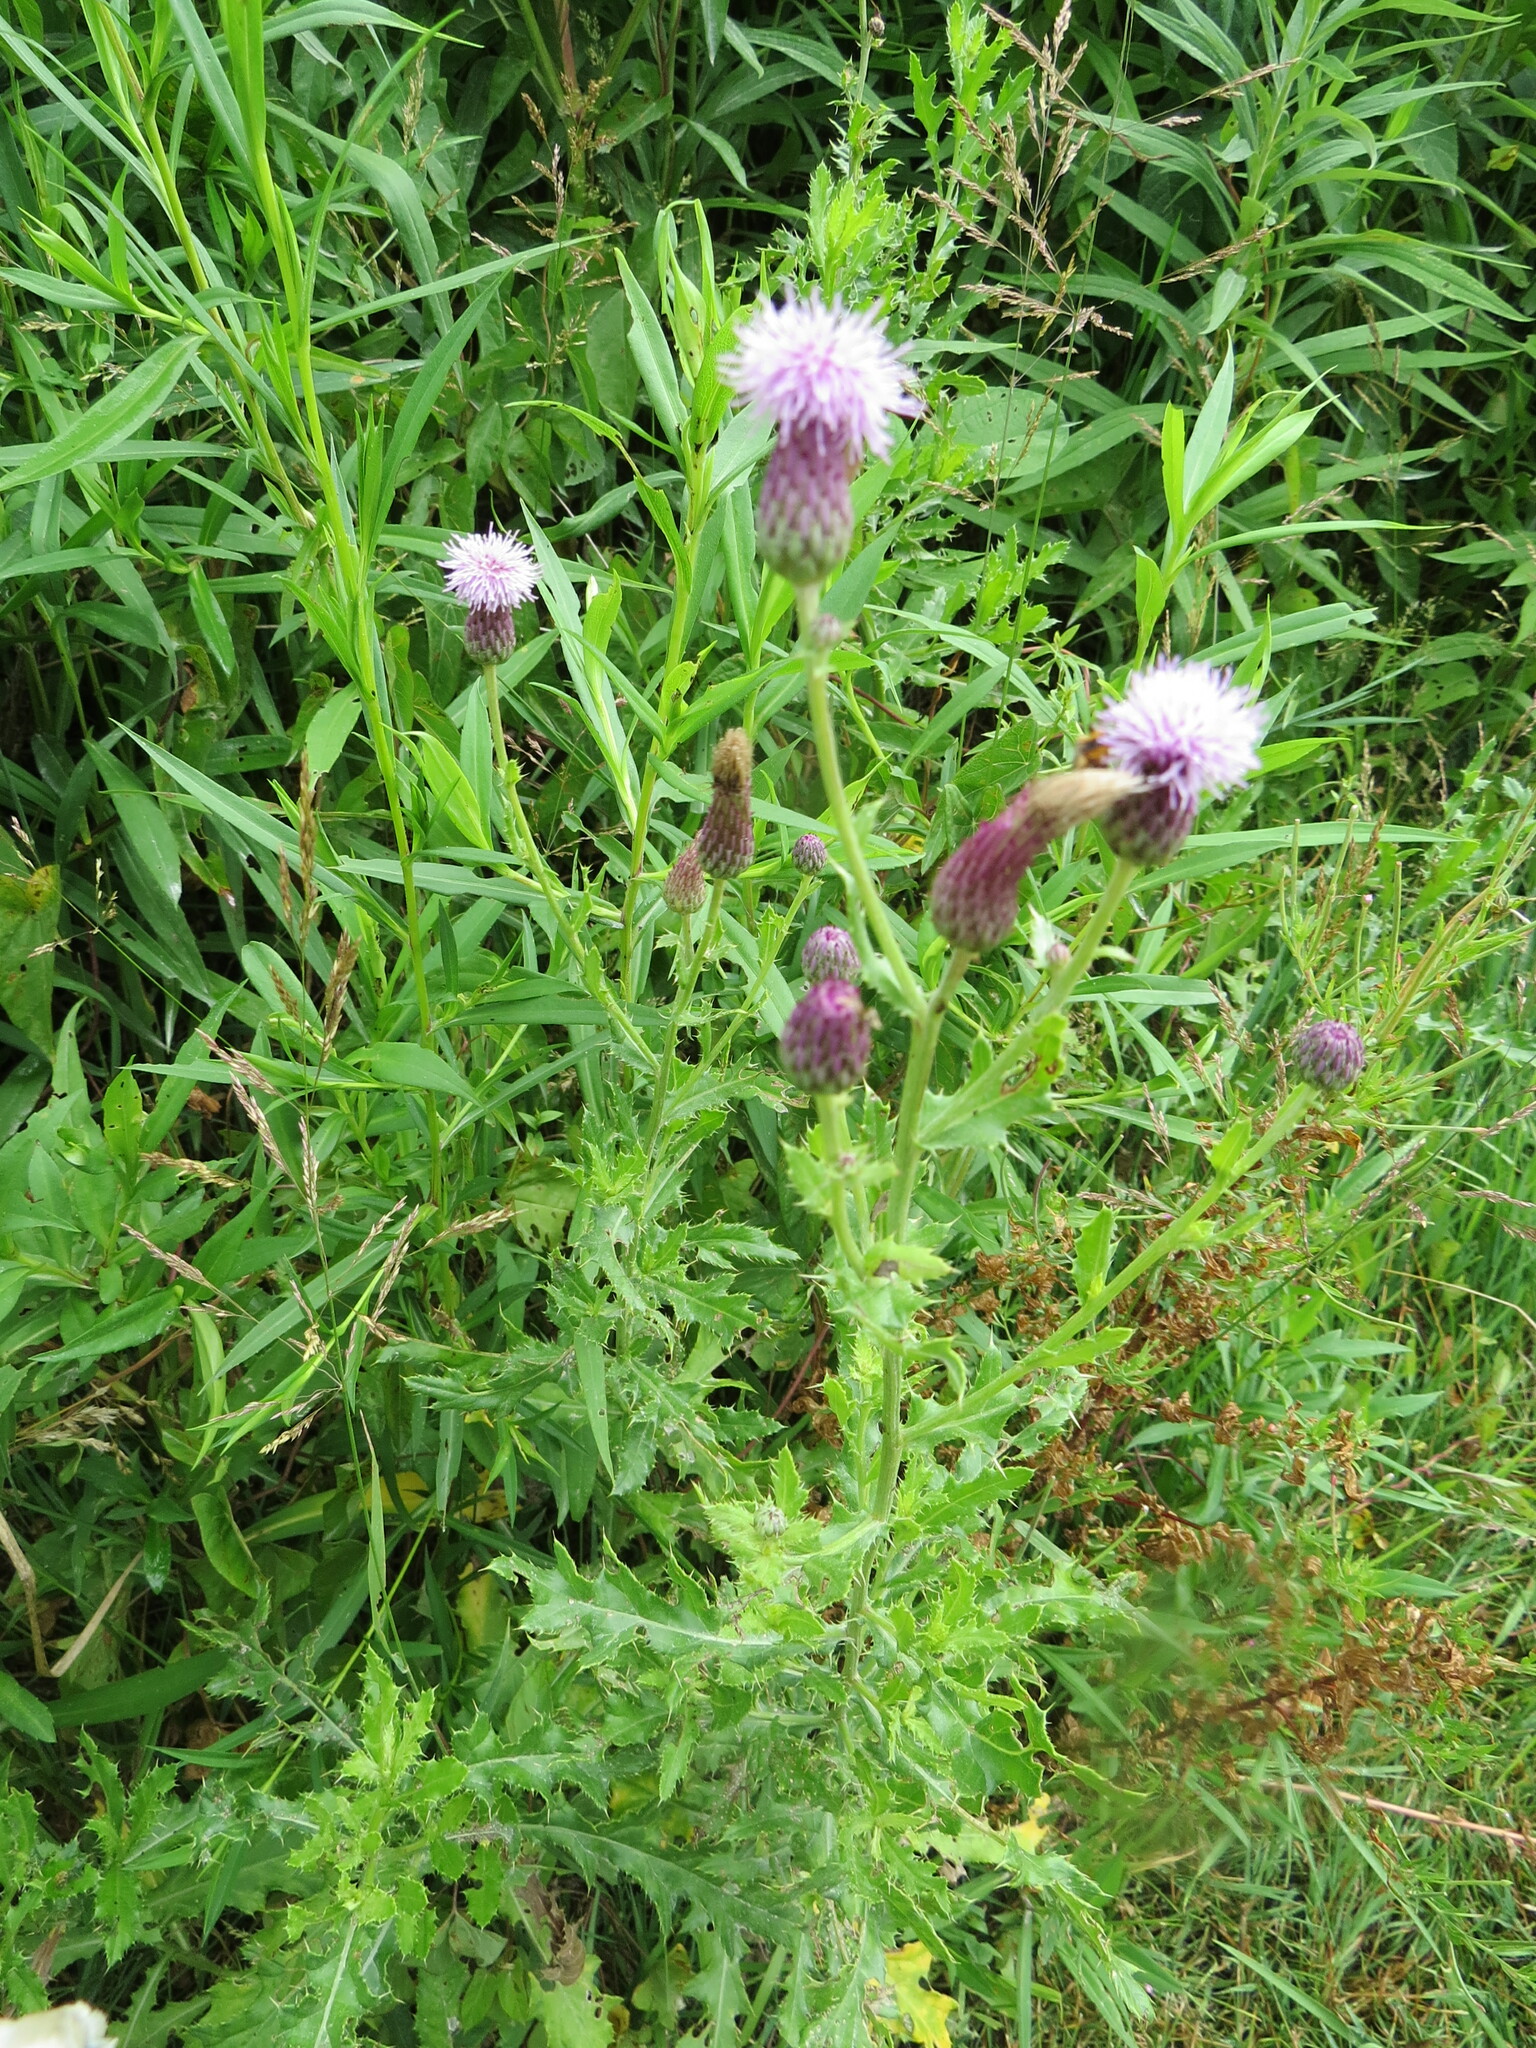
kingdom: Plantae
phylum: Tracheophyta
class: Magnoliopsida
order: Asterales
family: Asteraceae
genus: Cirsium
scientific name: Cirsium arvense
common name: Creeping thistle
